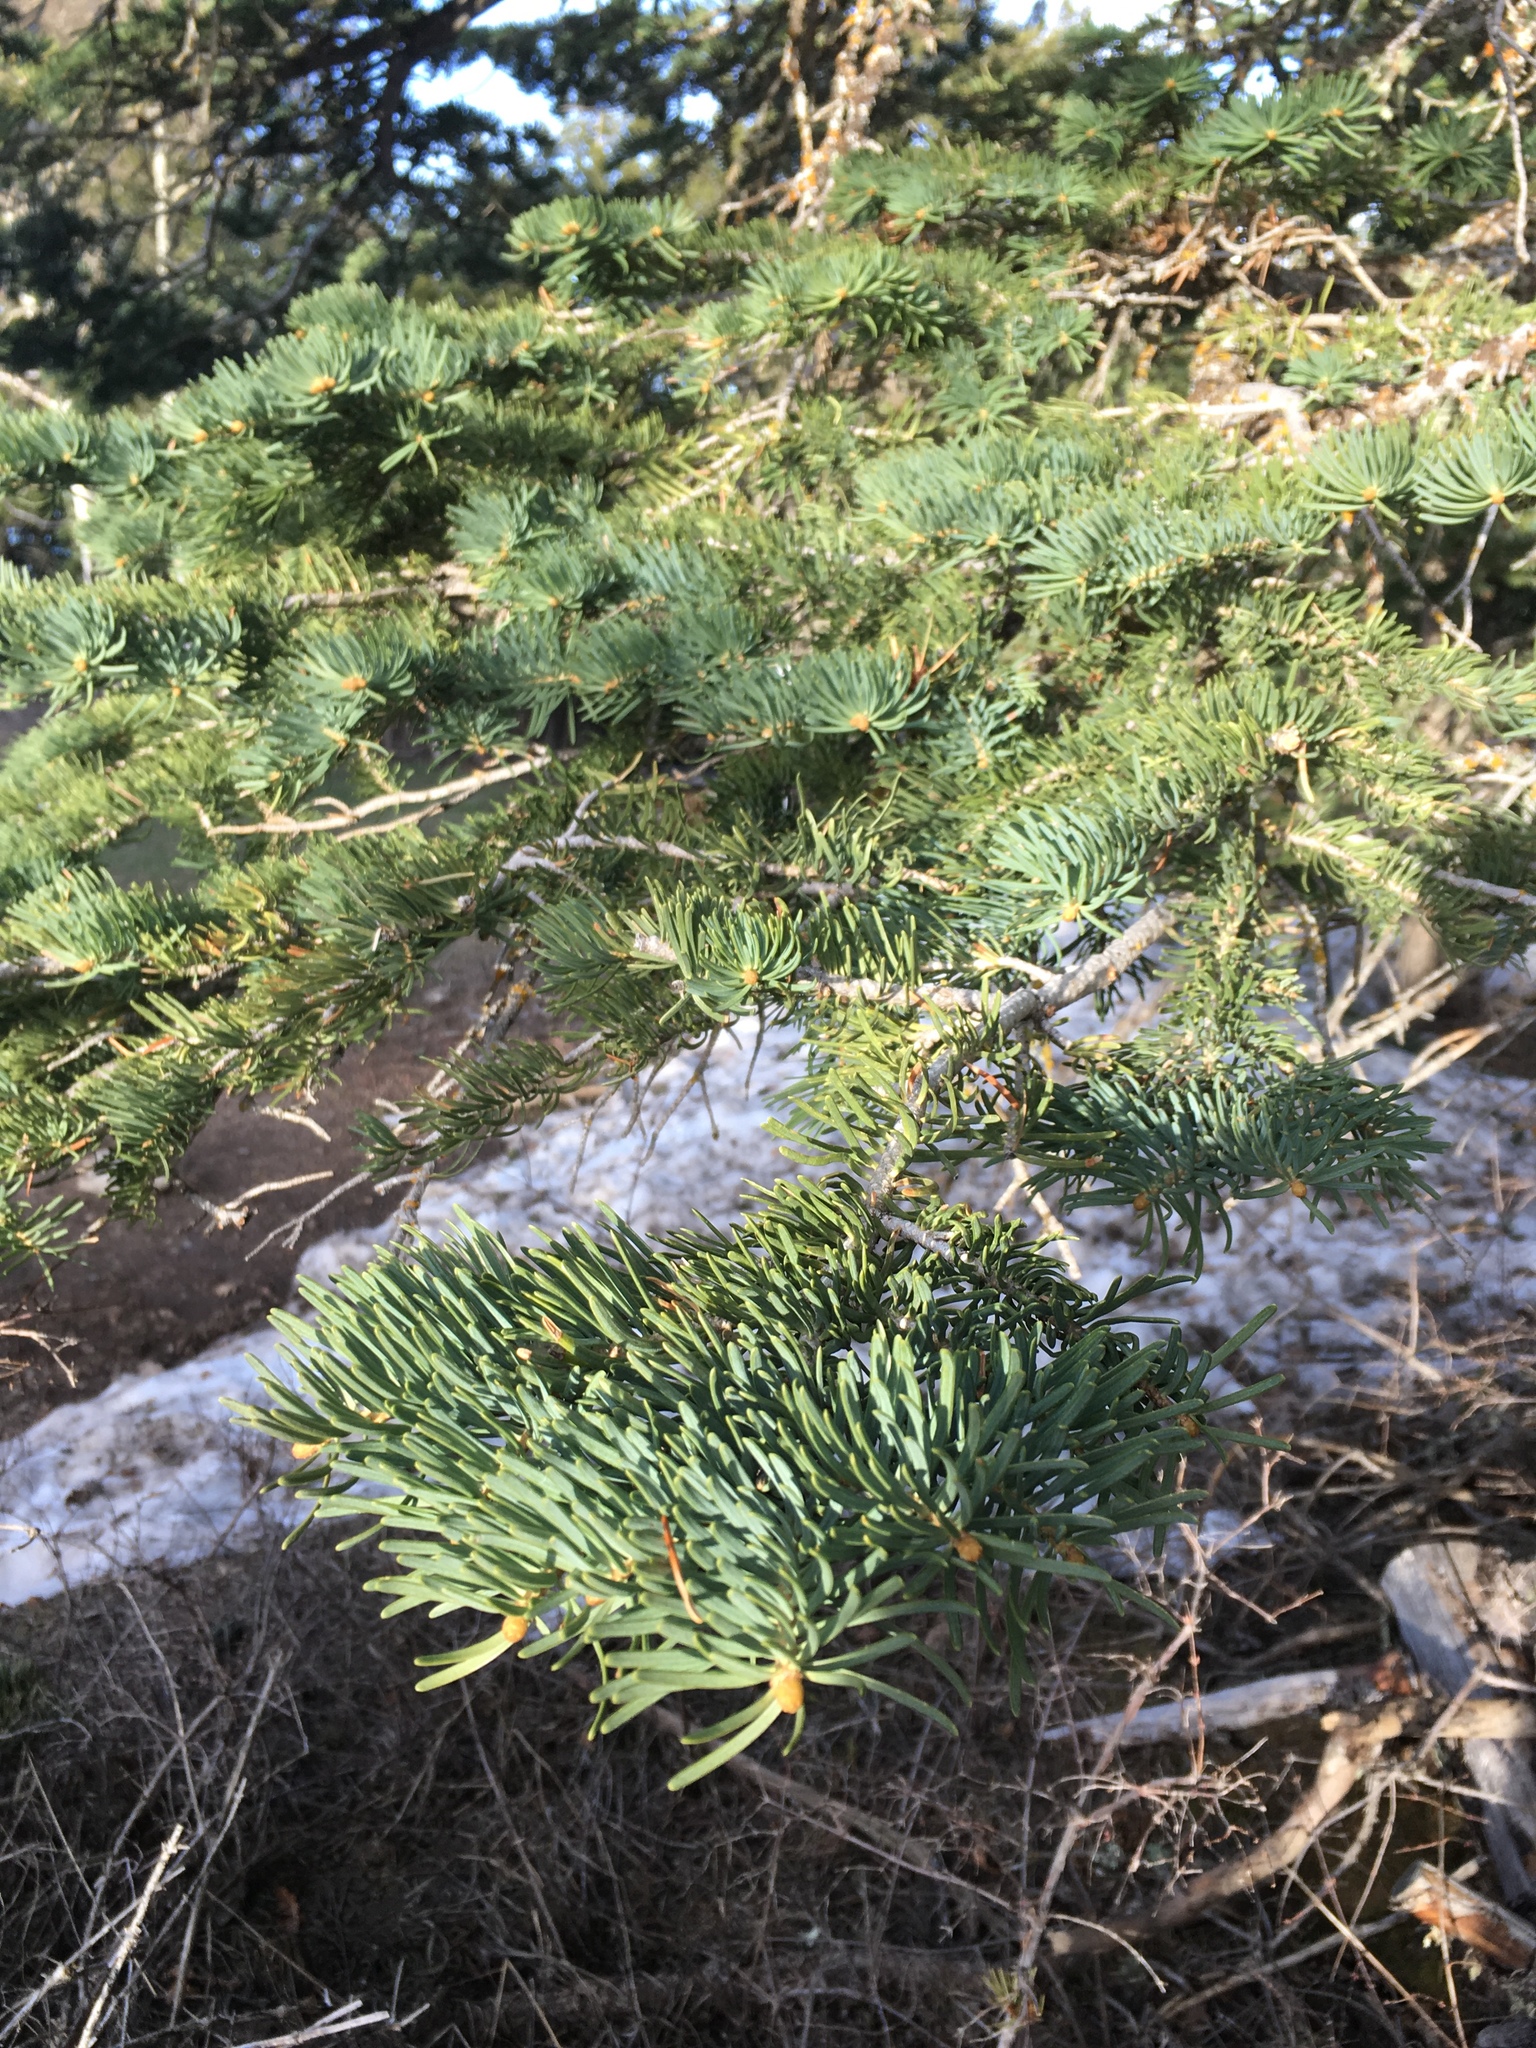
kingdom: Plantae
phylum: Tracheophyta
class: Pinopsida
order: Pinales
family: Pinaceae
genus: Abies
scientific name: Abies concolor
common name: Colorado fir
